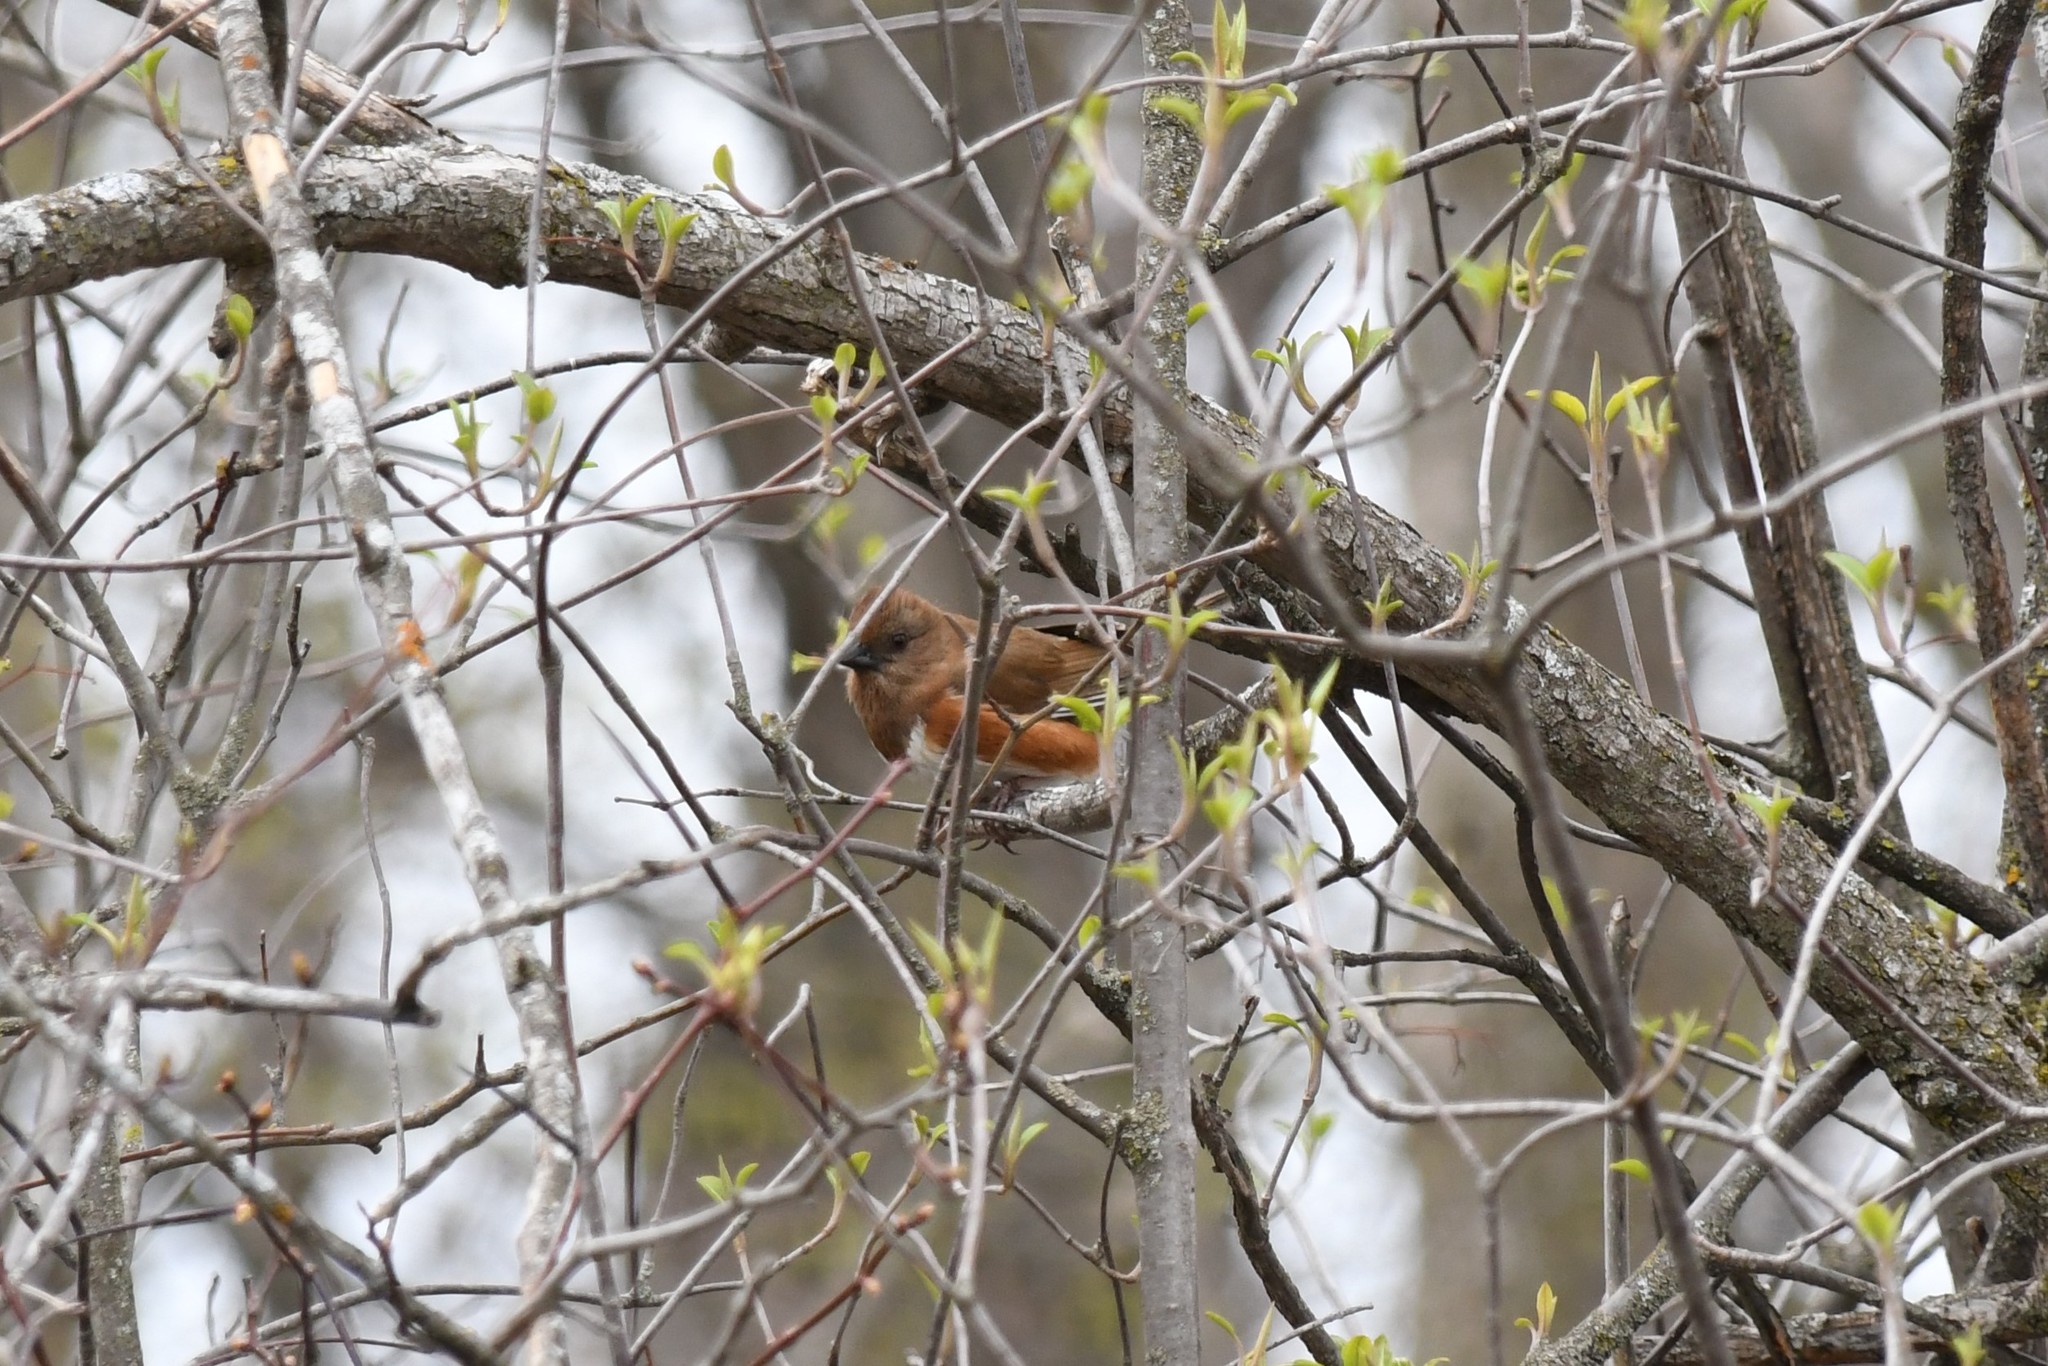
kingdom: Animalia
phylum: Chordata
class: Aves
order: Passeriformes
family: Passerellidae
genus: Pipilo
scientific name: Pipilo erythrophthalmus
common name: Eastern towhee
